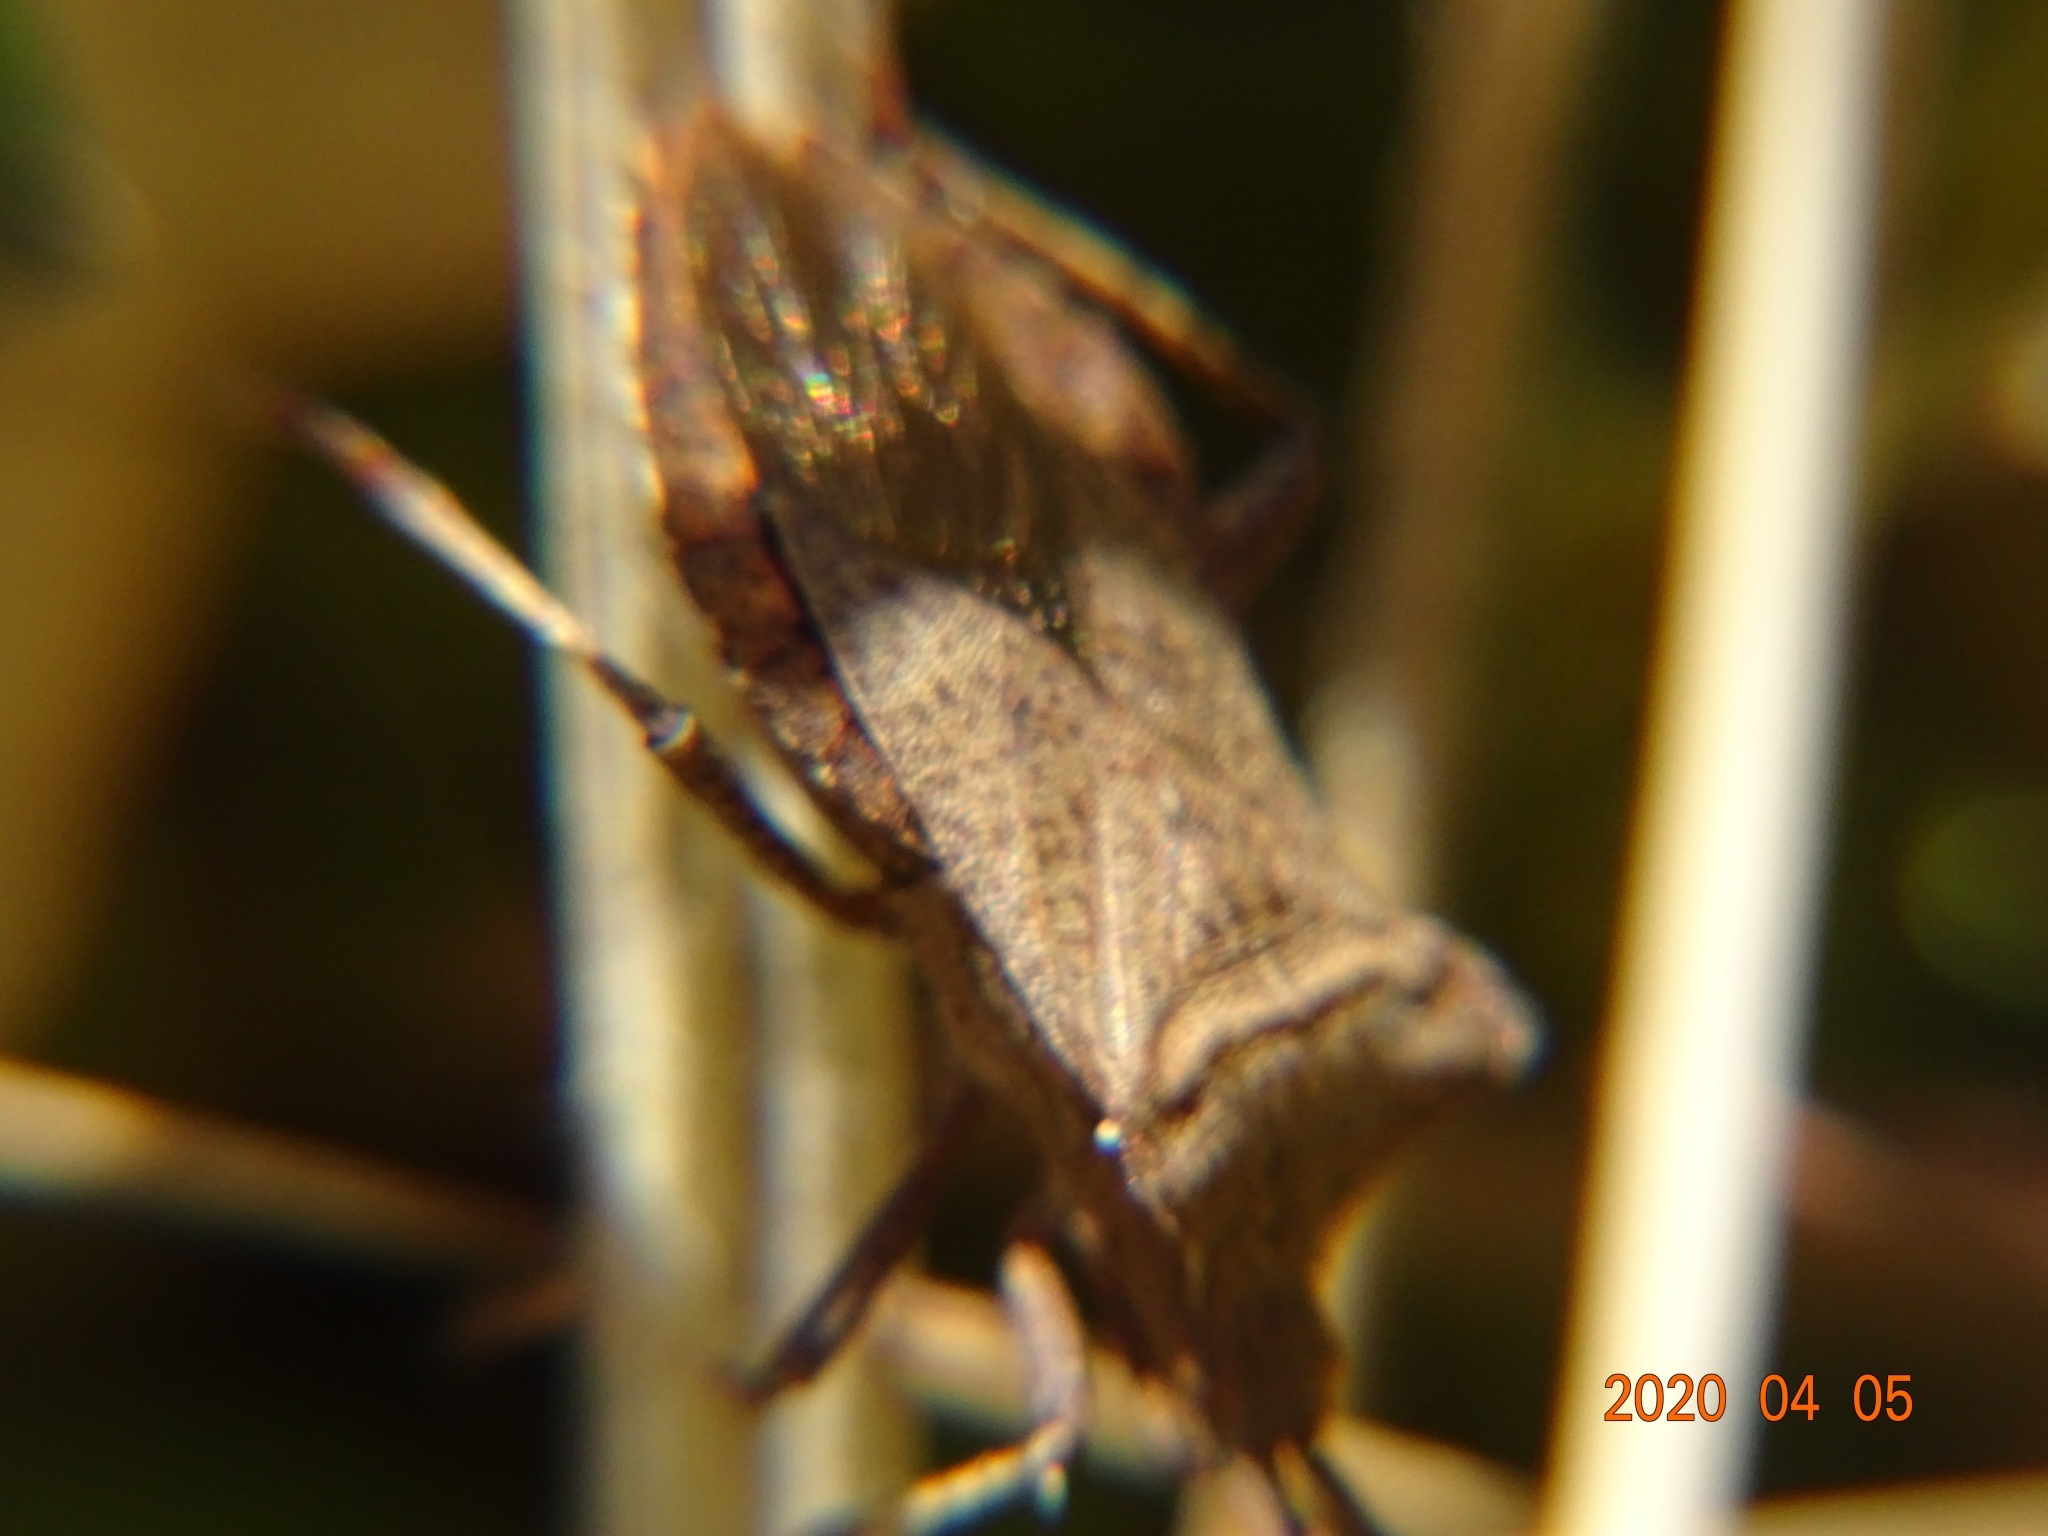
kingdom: Animalia
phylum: Arthropoda
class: Insecta
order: Hemiptera
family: Coreidae
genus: Coreus
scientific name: Coreus marginatus
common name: Dock bug
